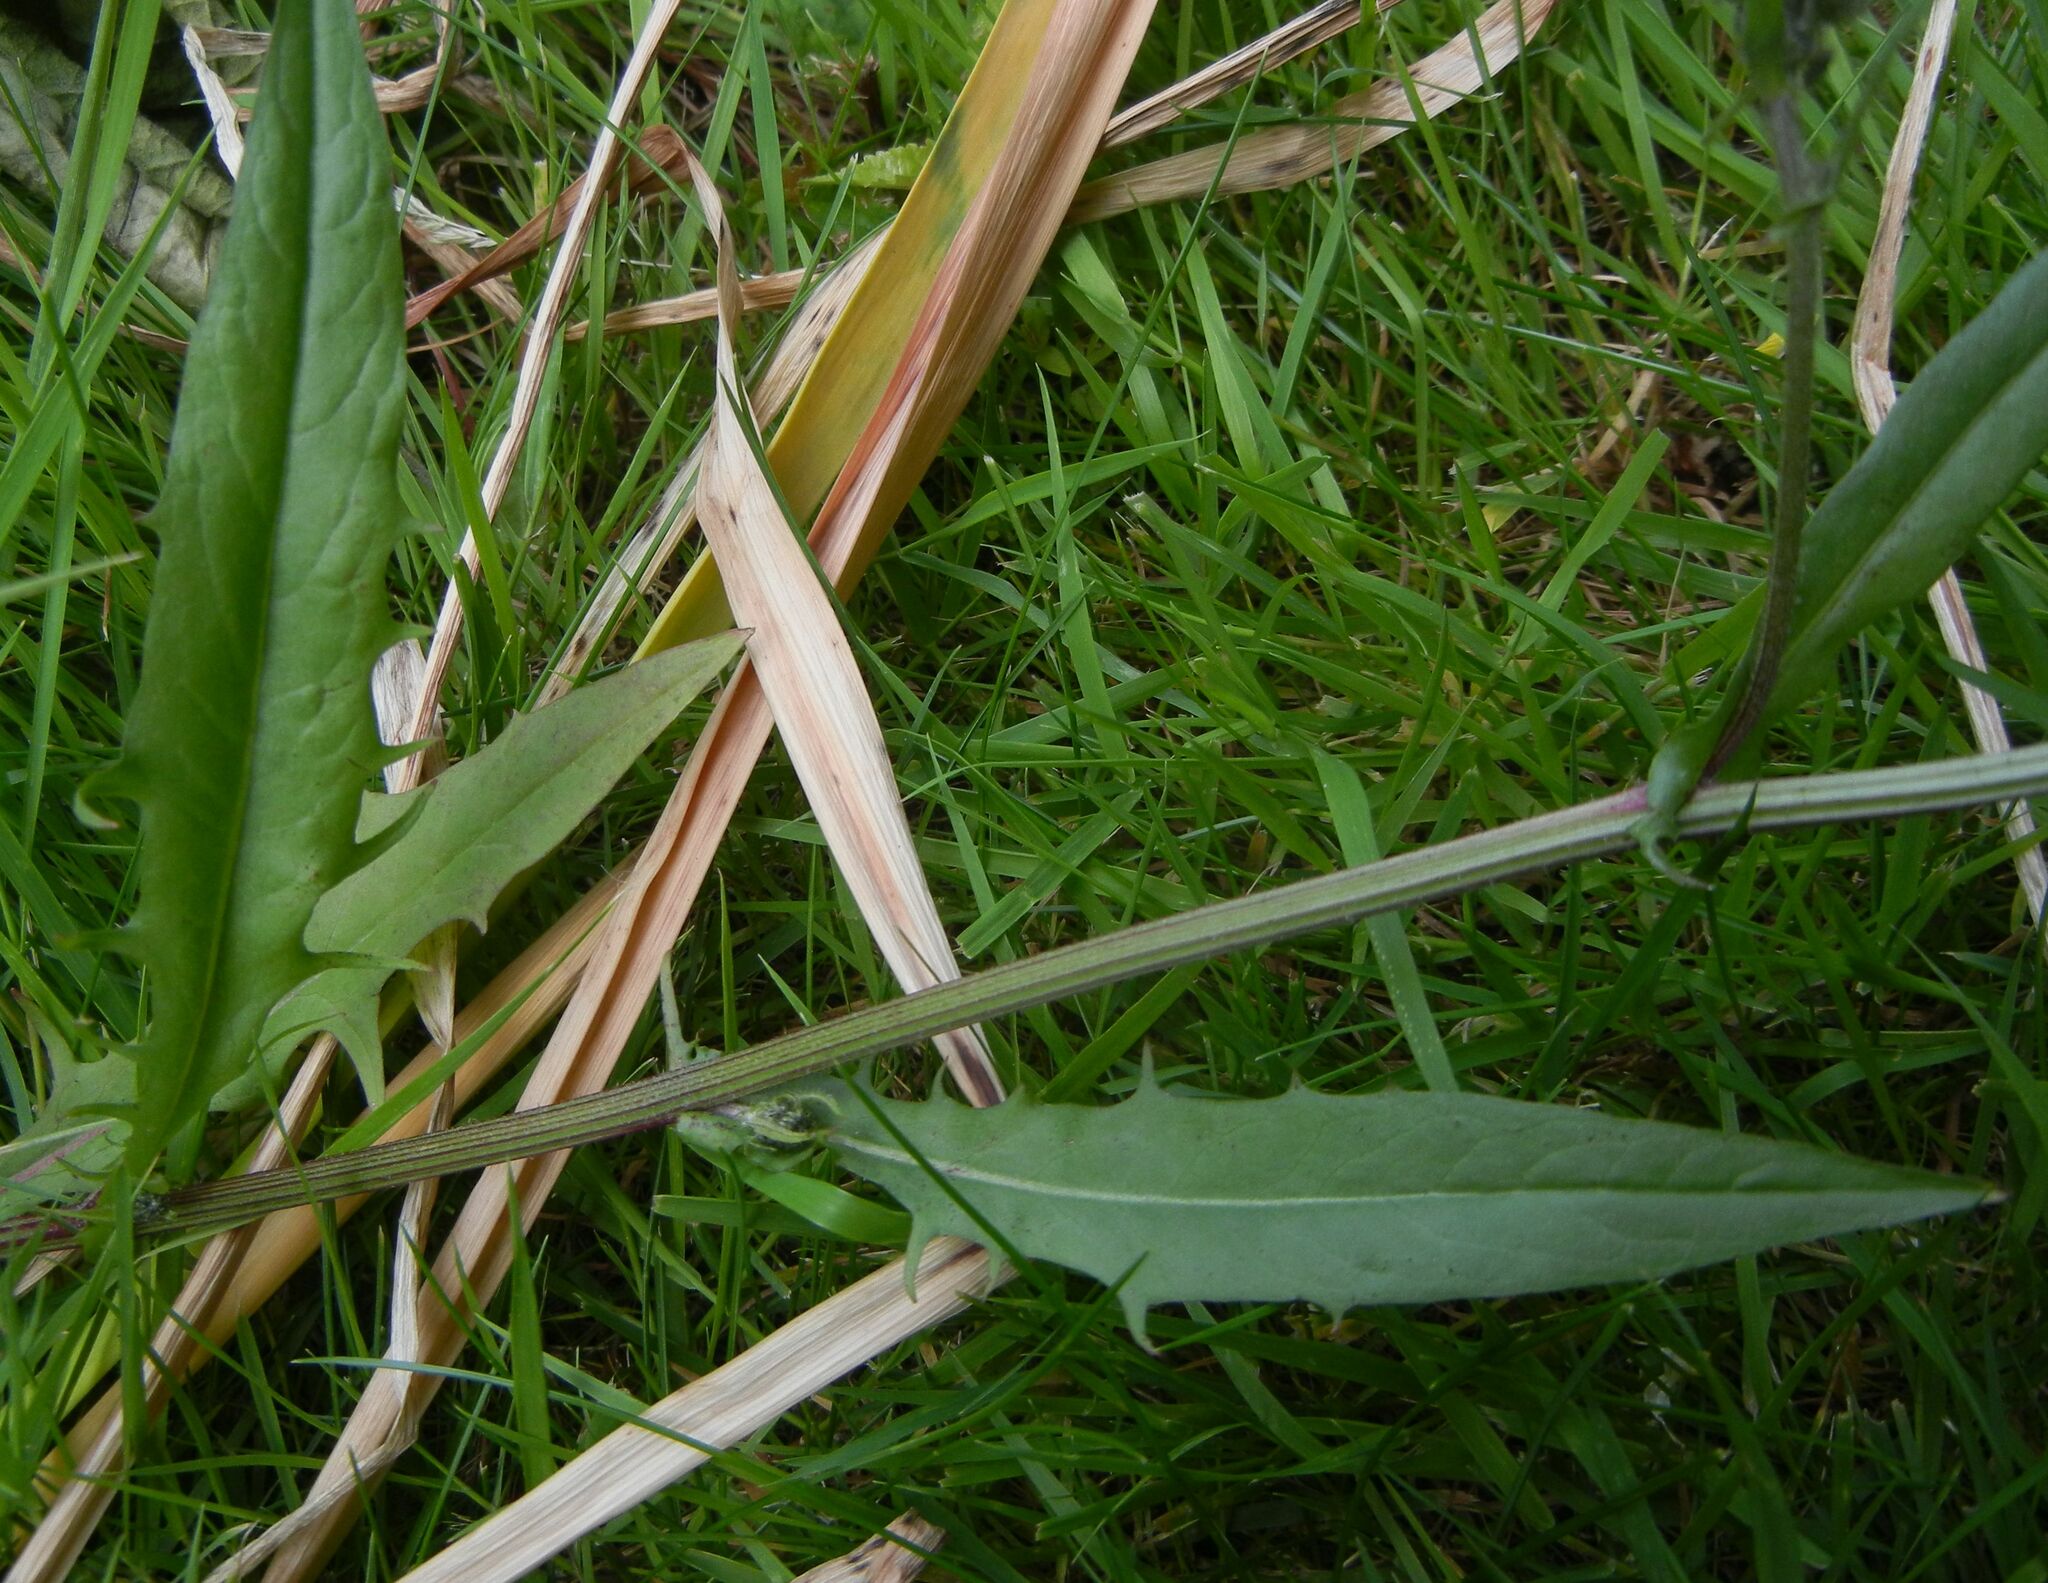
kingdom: Plantae
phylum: Tracheophyta
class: Magnoliopsida
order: Asterales
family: Asteraceae
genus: Crepis
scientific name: Crepis biennis
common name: Rough hawk's-beard
